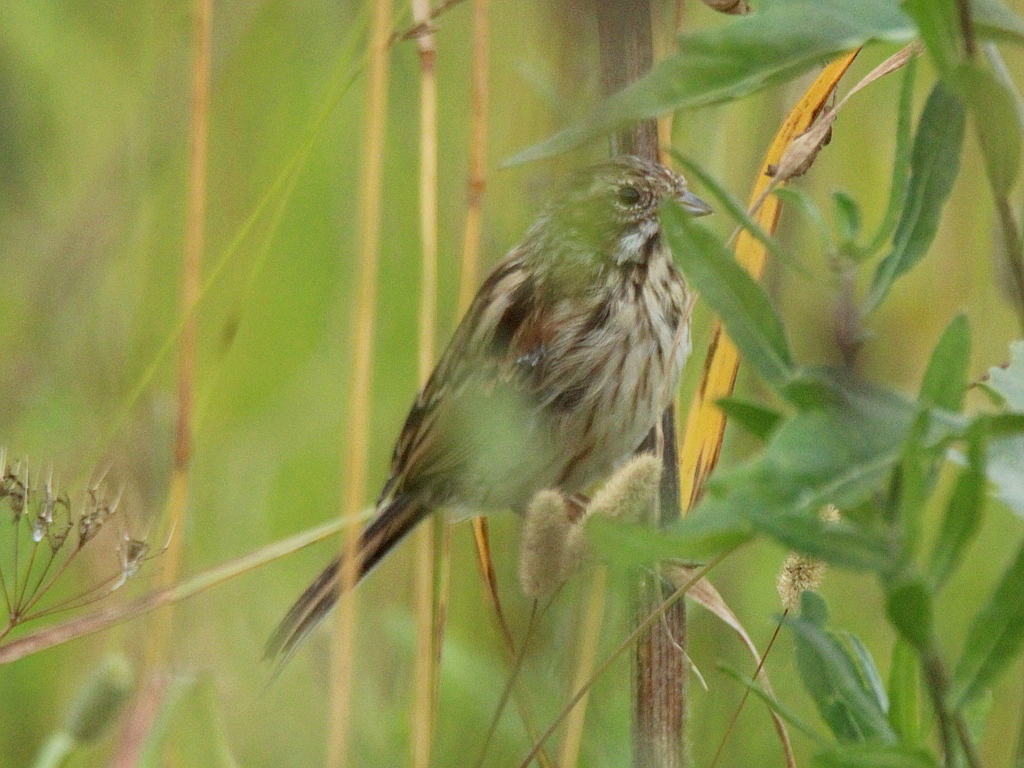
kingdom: Animalia
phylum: Chordata
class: Aves
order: Passeriformes
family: Emberizidae
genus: Emberiza
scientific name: Emberiza schoeniclus
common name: Reed bunting
